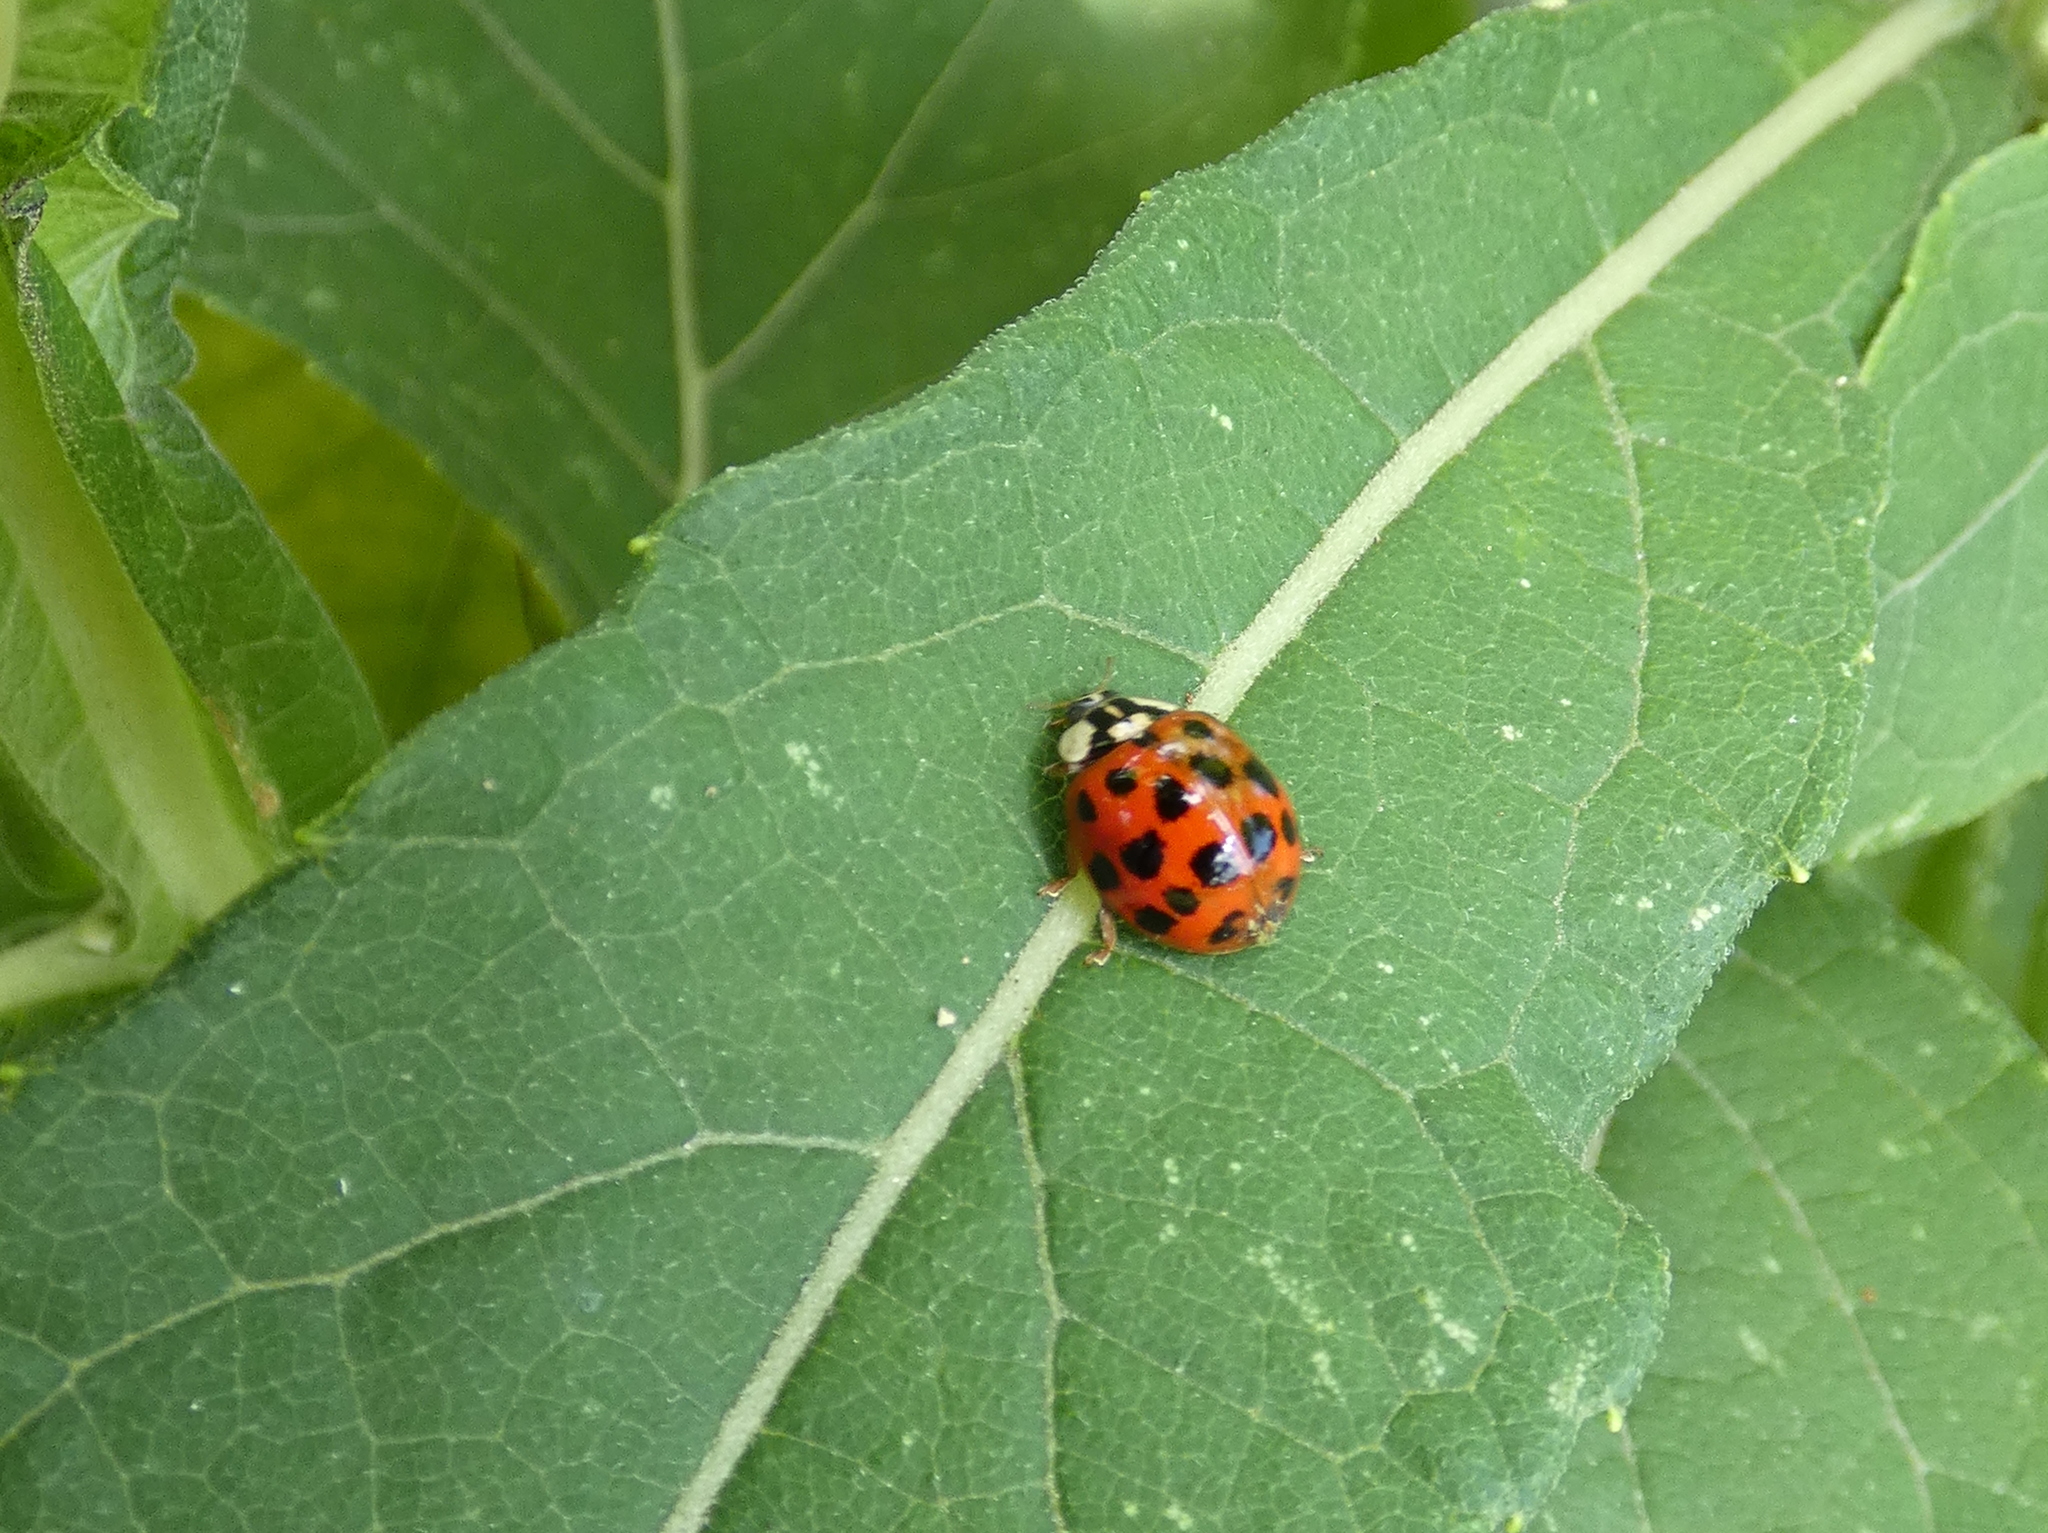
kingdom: Animalia
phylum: Arthropoda
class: Insecta
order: Coleoptera
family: Coccinellidae
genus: Harmonia
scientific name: Harmonia axyridis
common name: Harlequin ladybird
